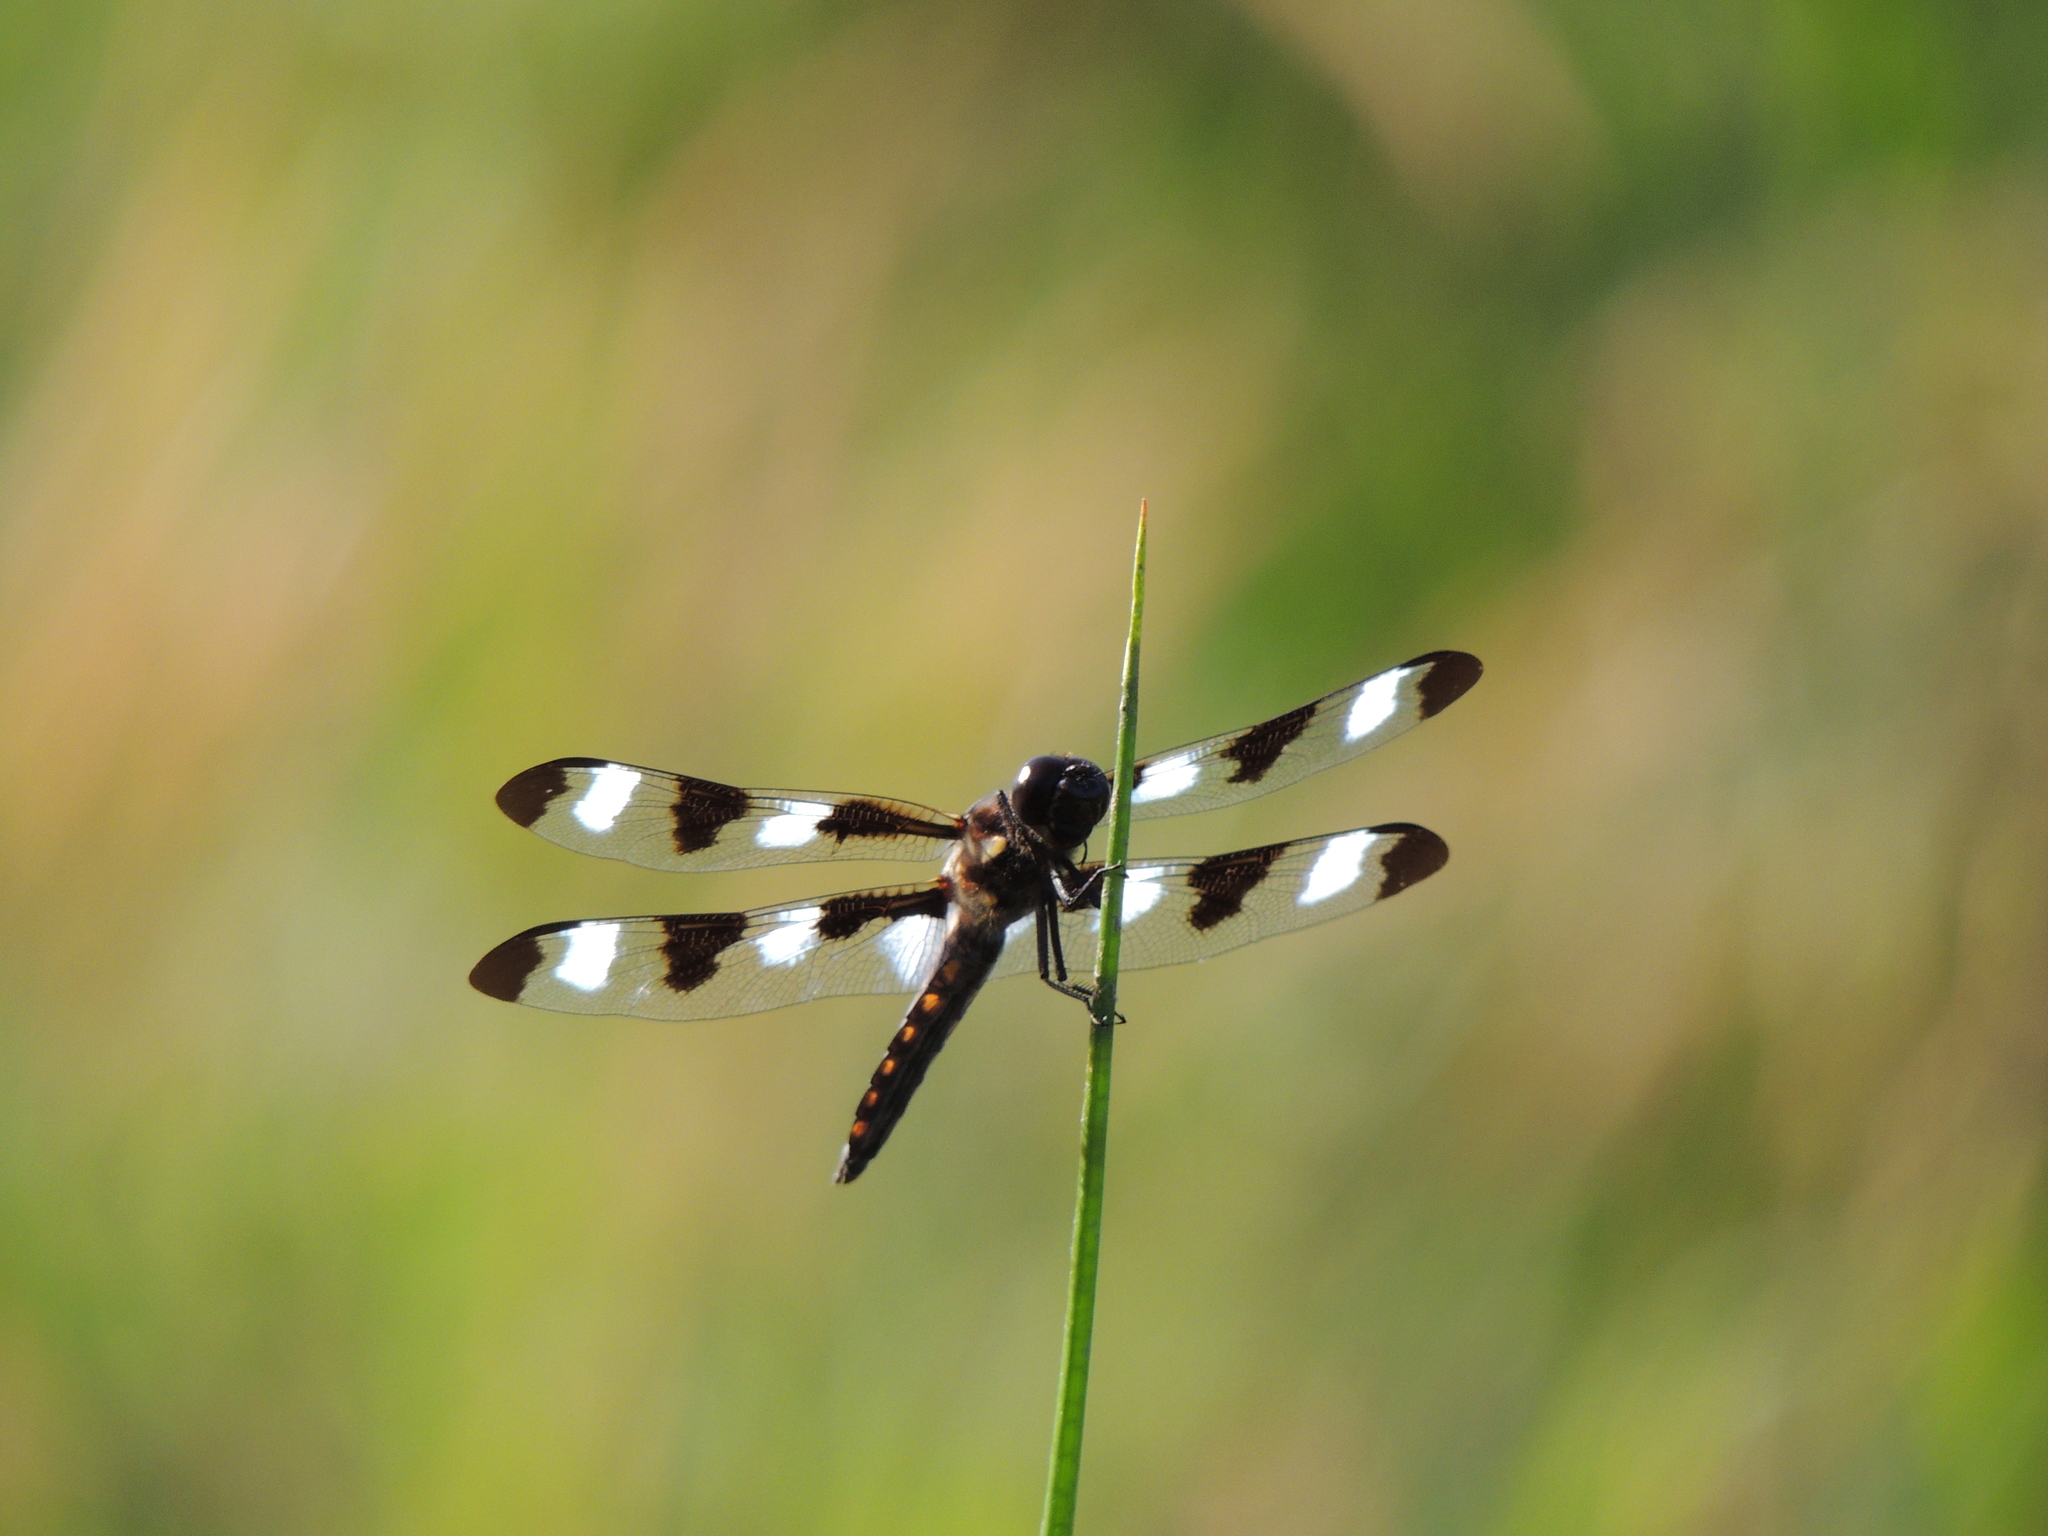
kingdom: Animalia
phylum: Arthropoda
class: Insecta
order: Odonata
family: Libellulidae
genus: Libellula
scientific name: Libellula pulchella
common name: Twelve-spotted skimmer
